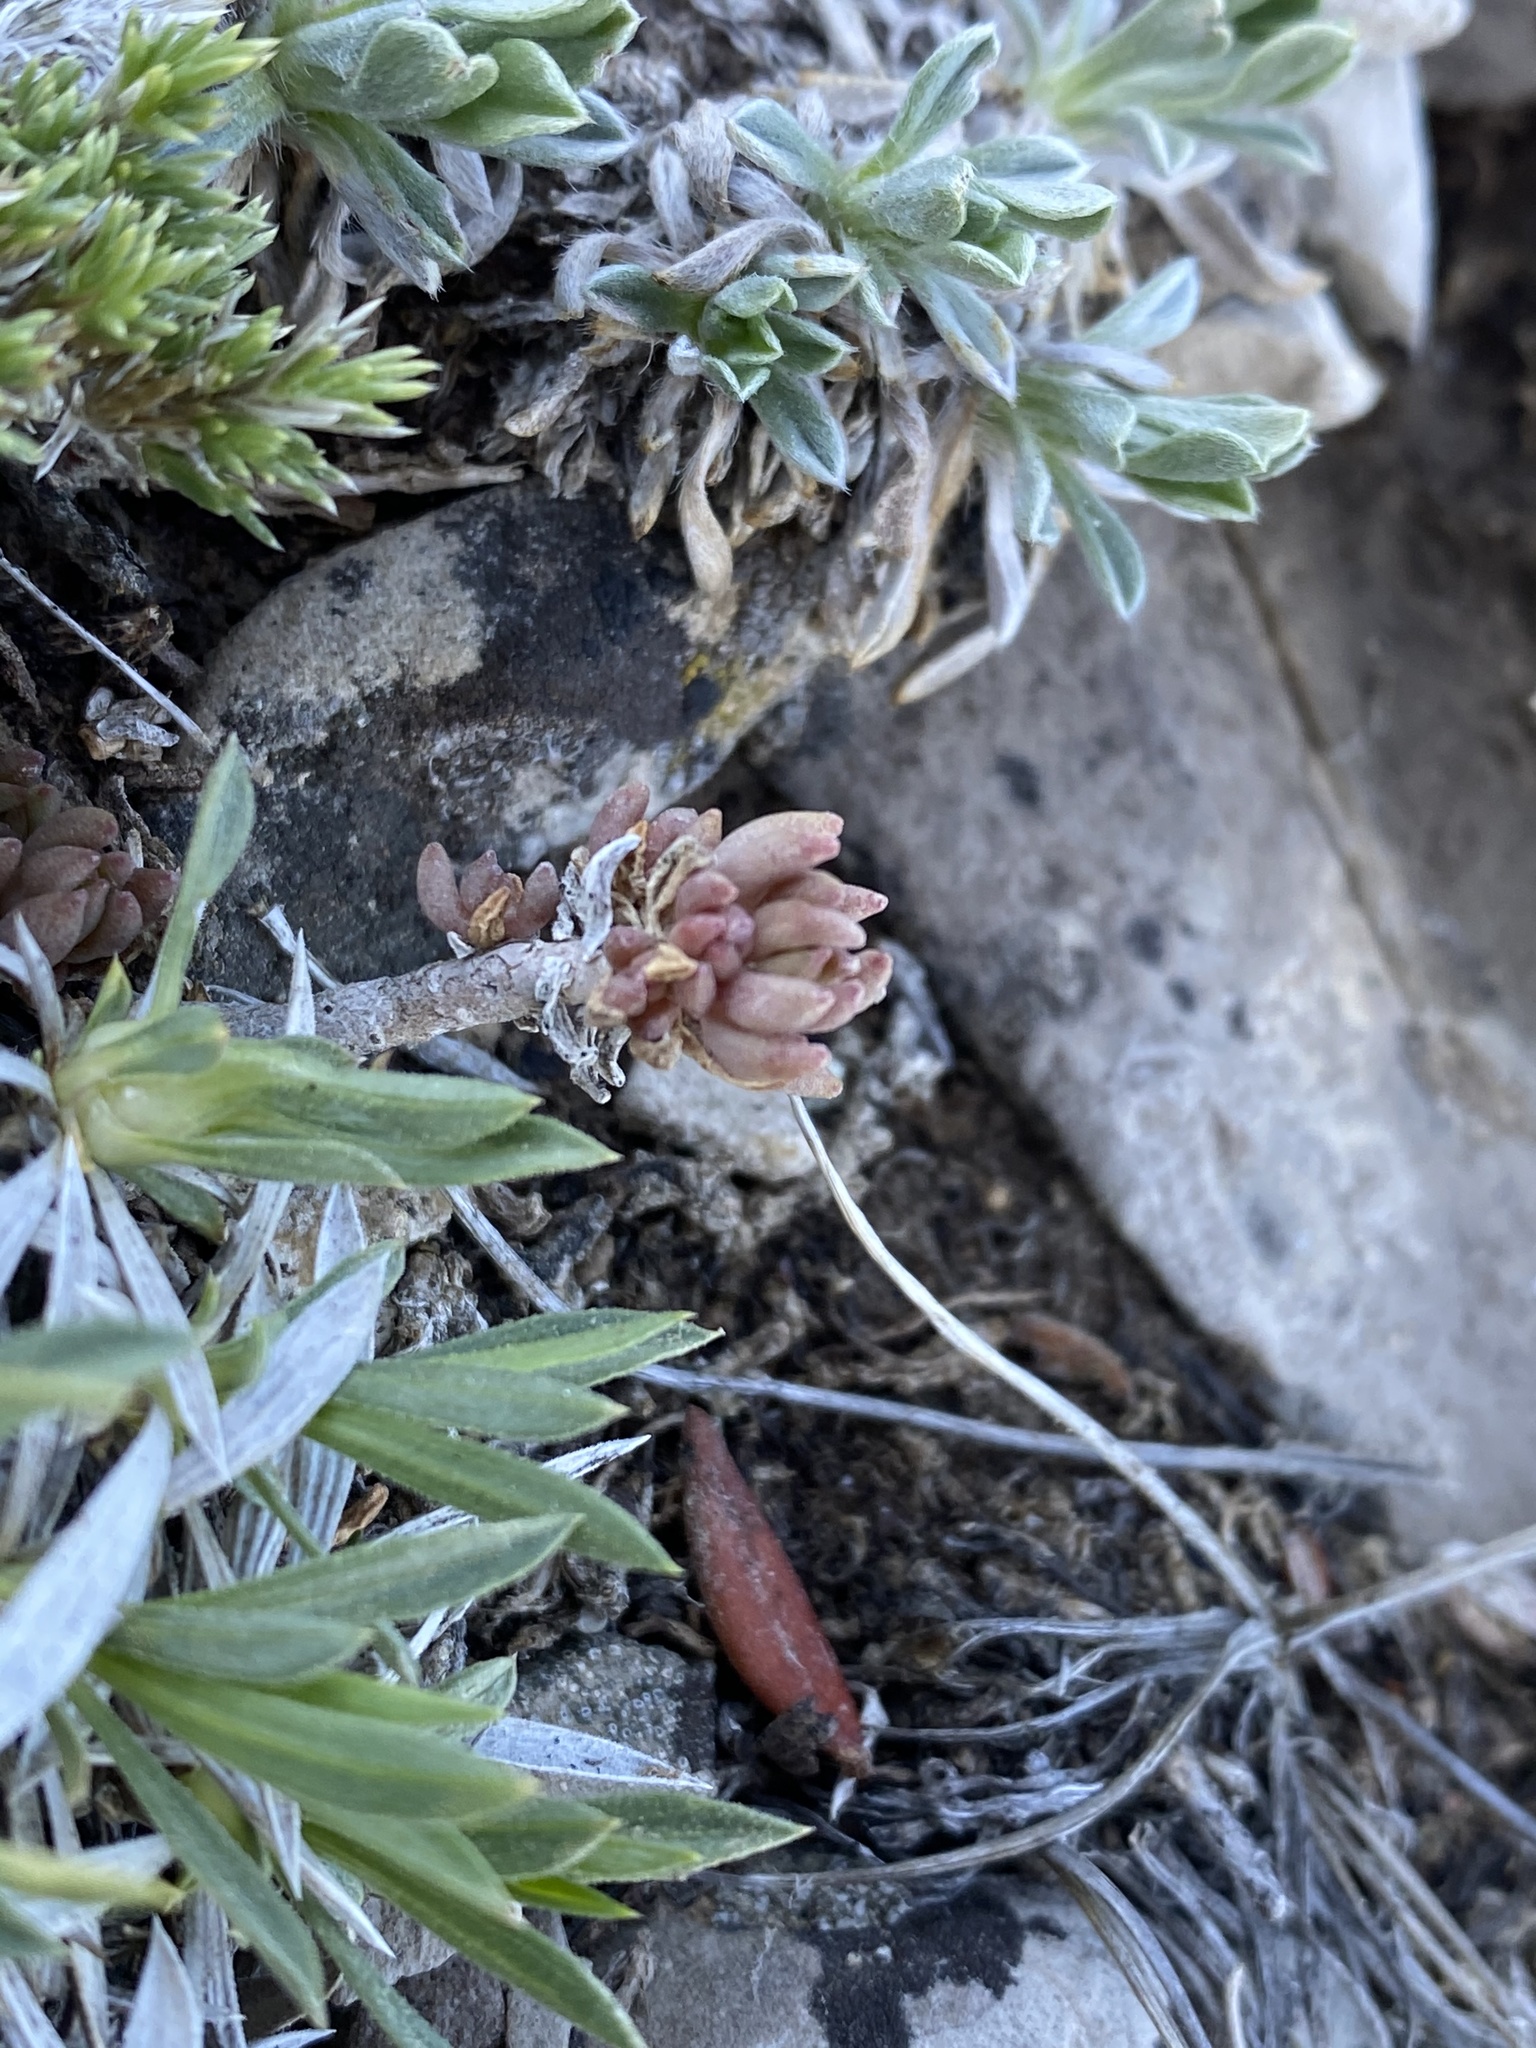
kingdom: Plantae
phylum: Tracheophyta
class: Magnoliopsida
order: Saxifragales
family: Crassulaceae
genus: Sedum
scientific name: Sedum lanceolatum
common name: Common stonecrop
